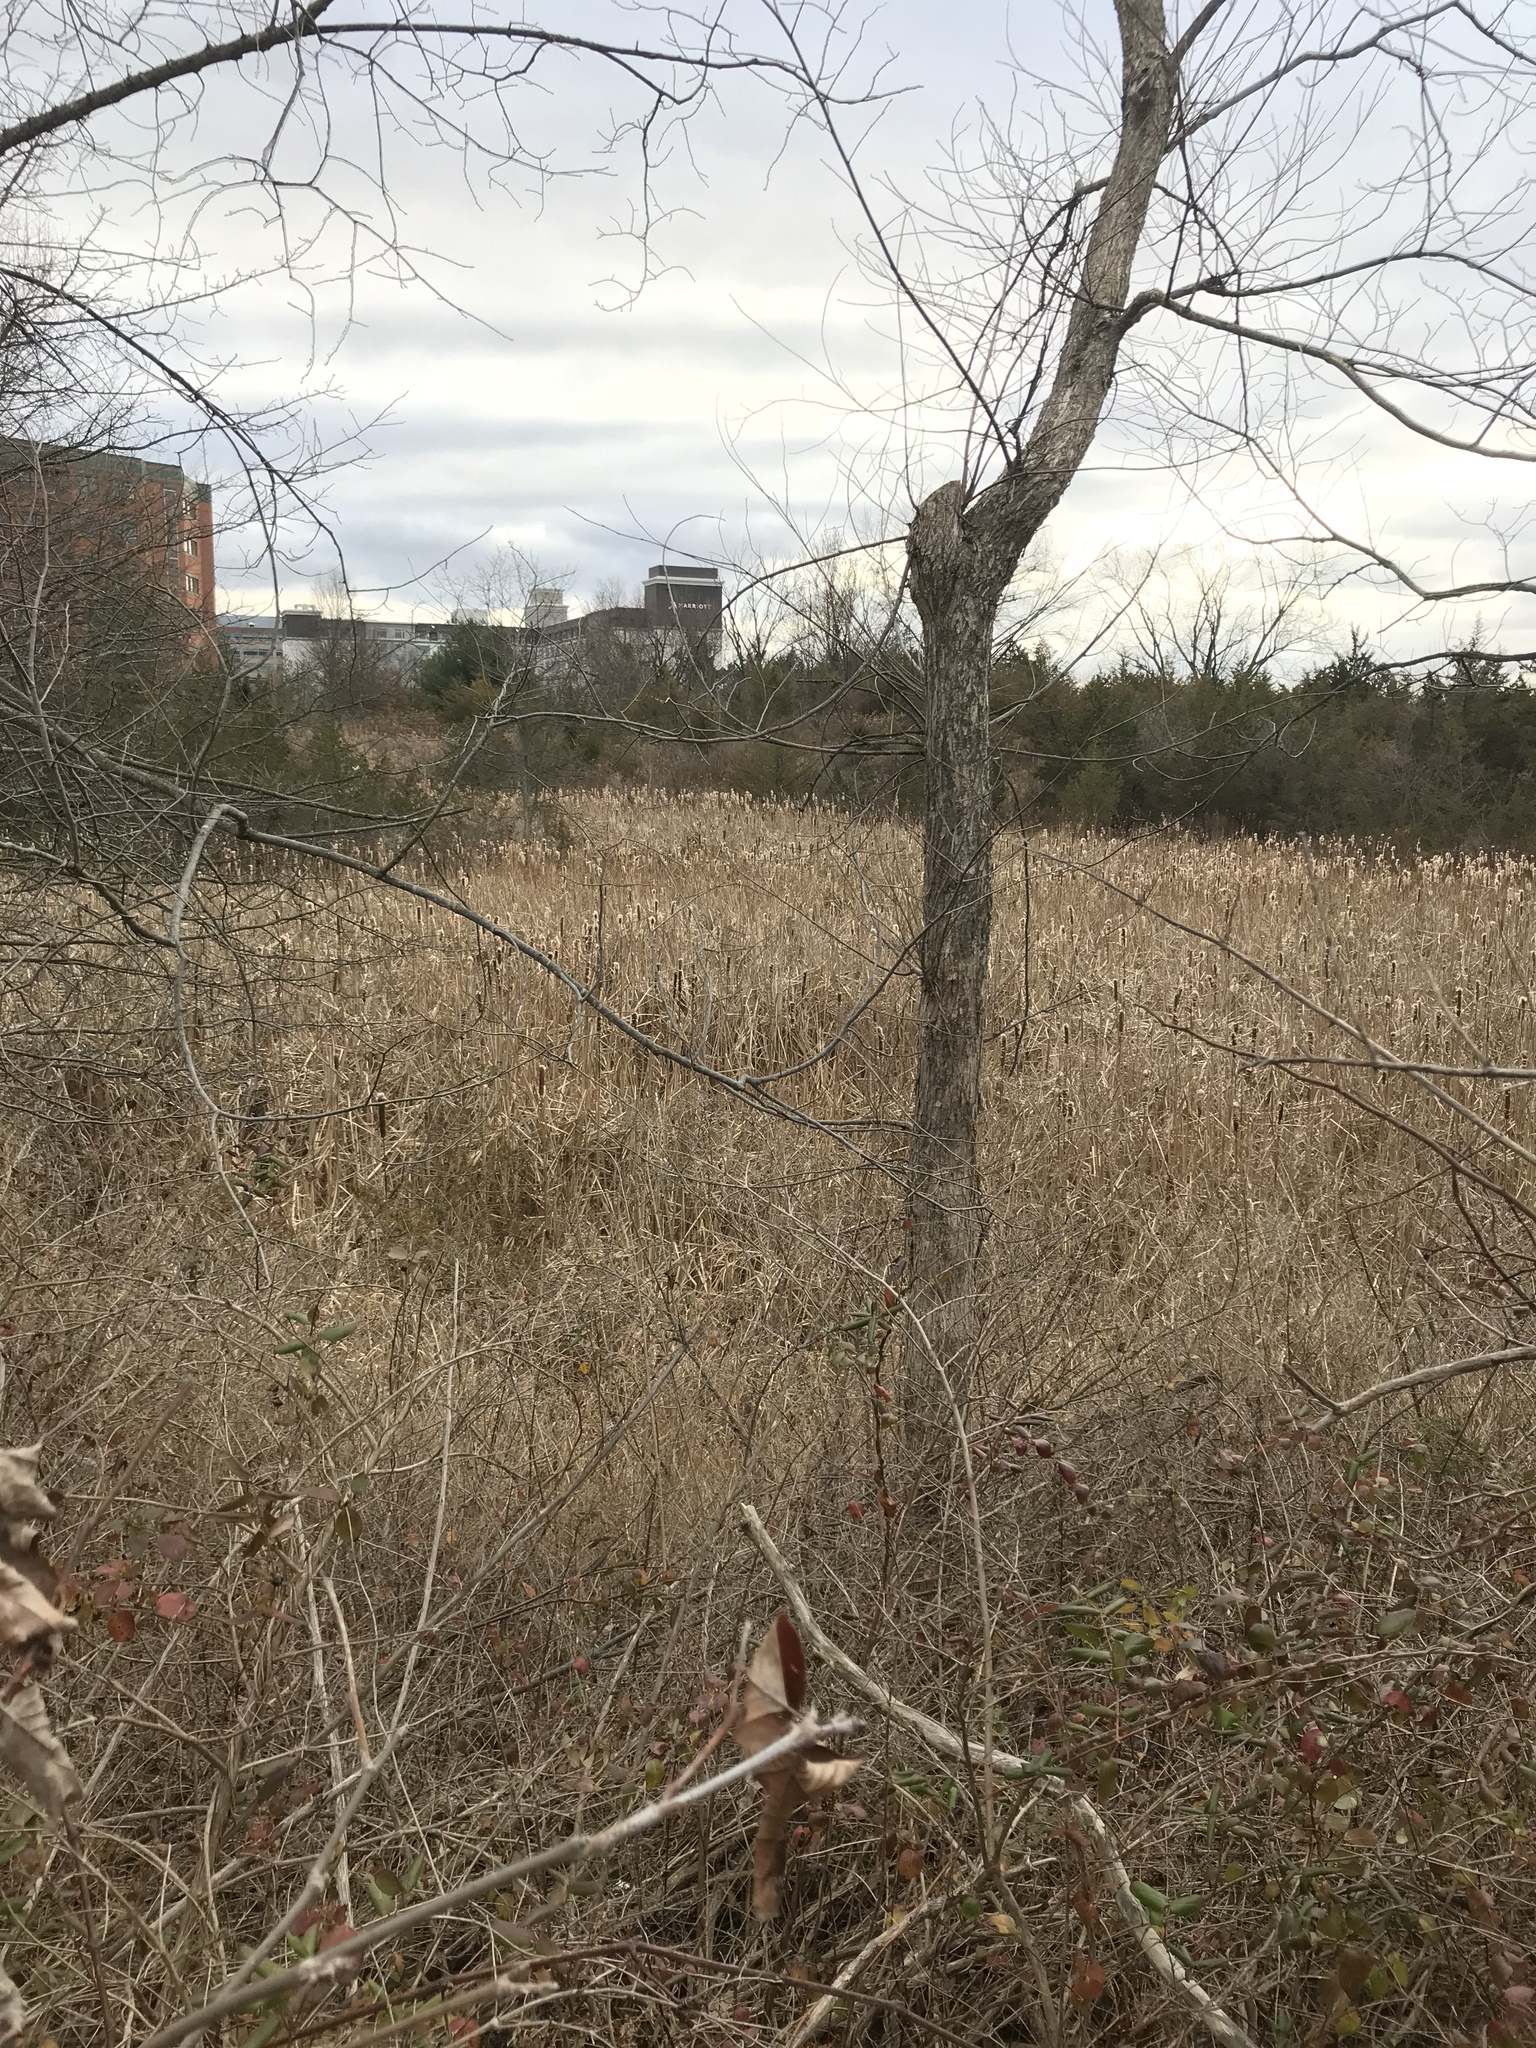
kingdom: Plantae
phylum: Tracheophyta
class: Liliopsida
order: Poales
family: Typhaceae
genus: Typha
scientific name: Typha
